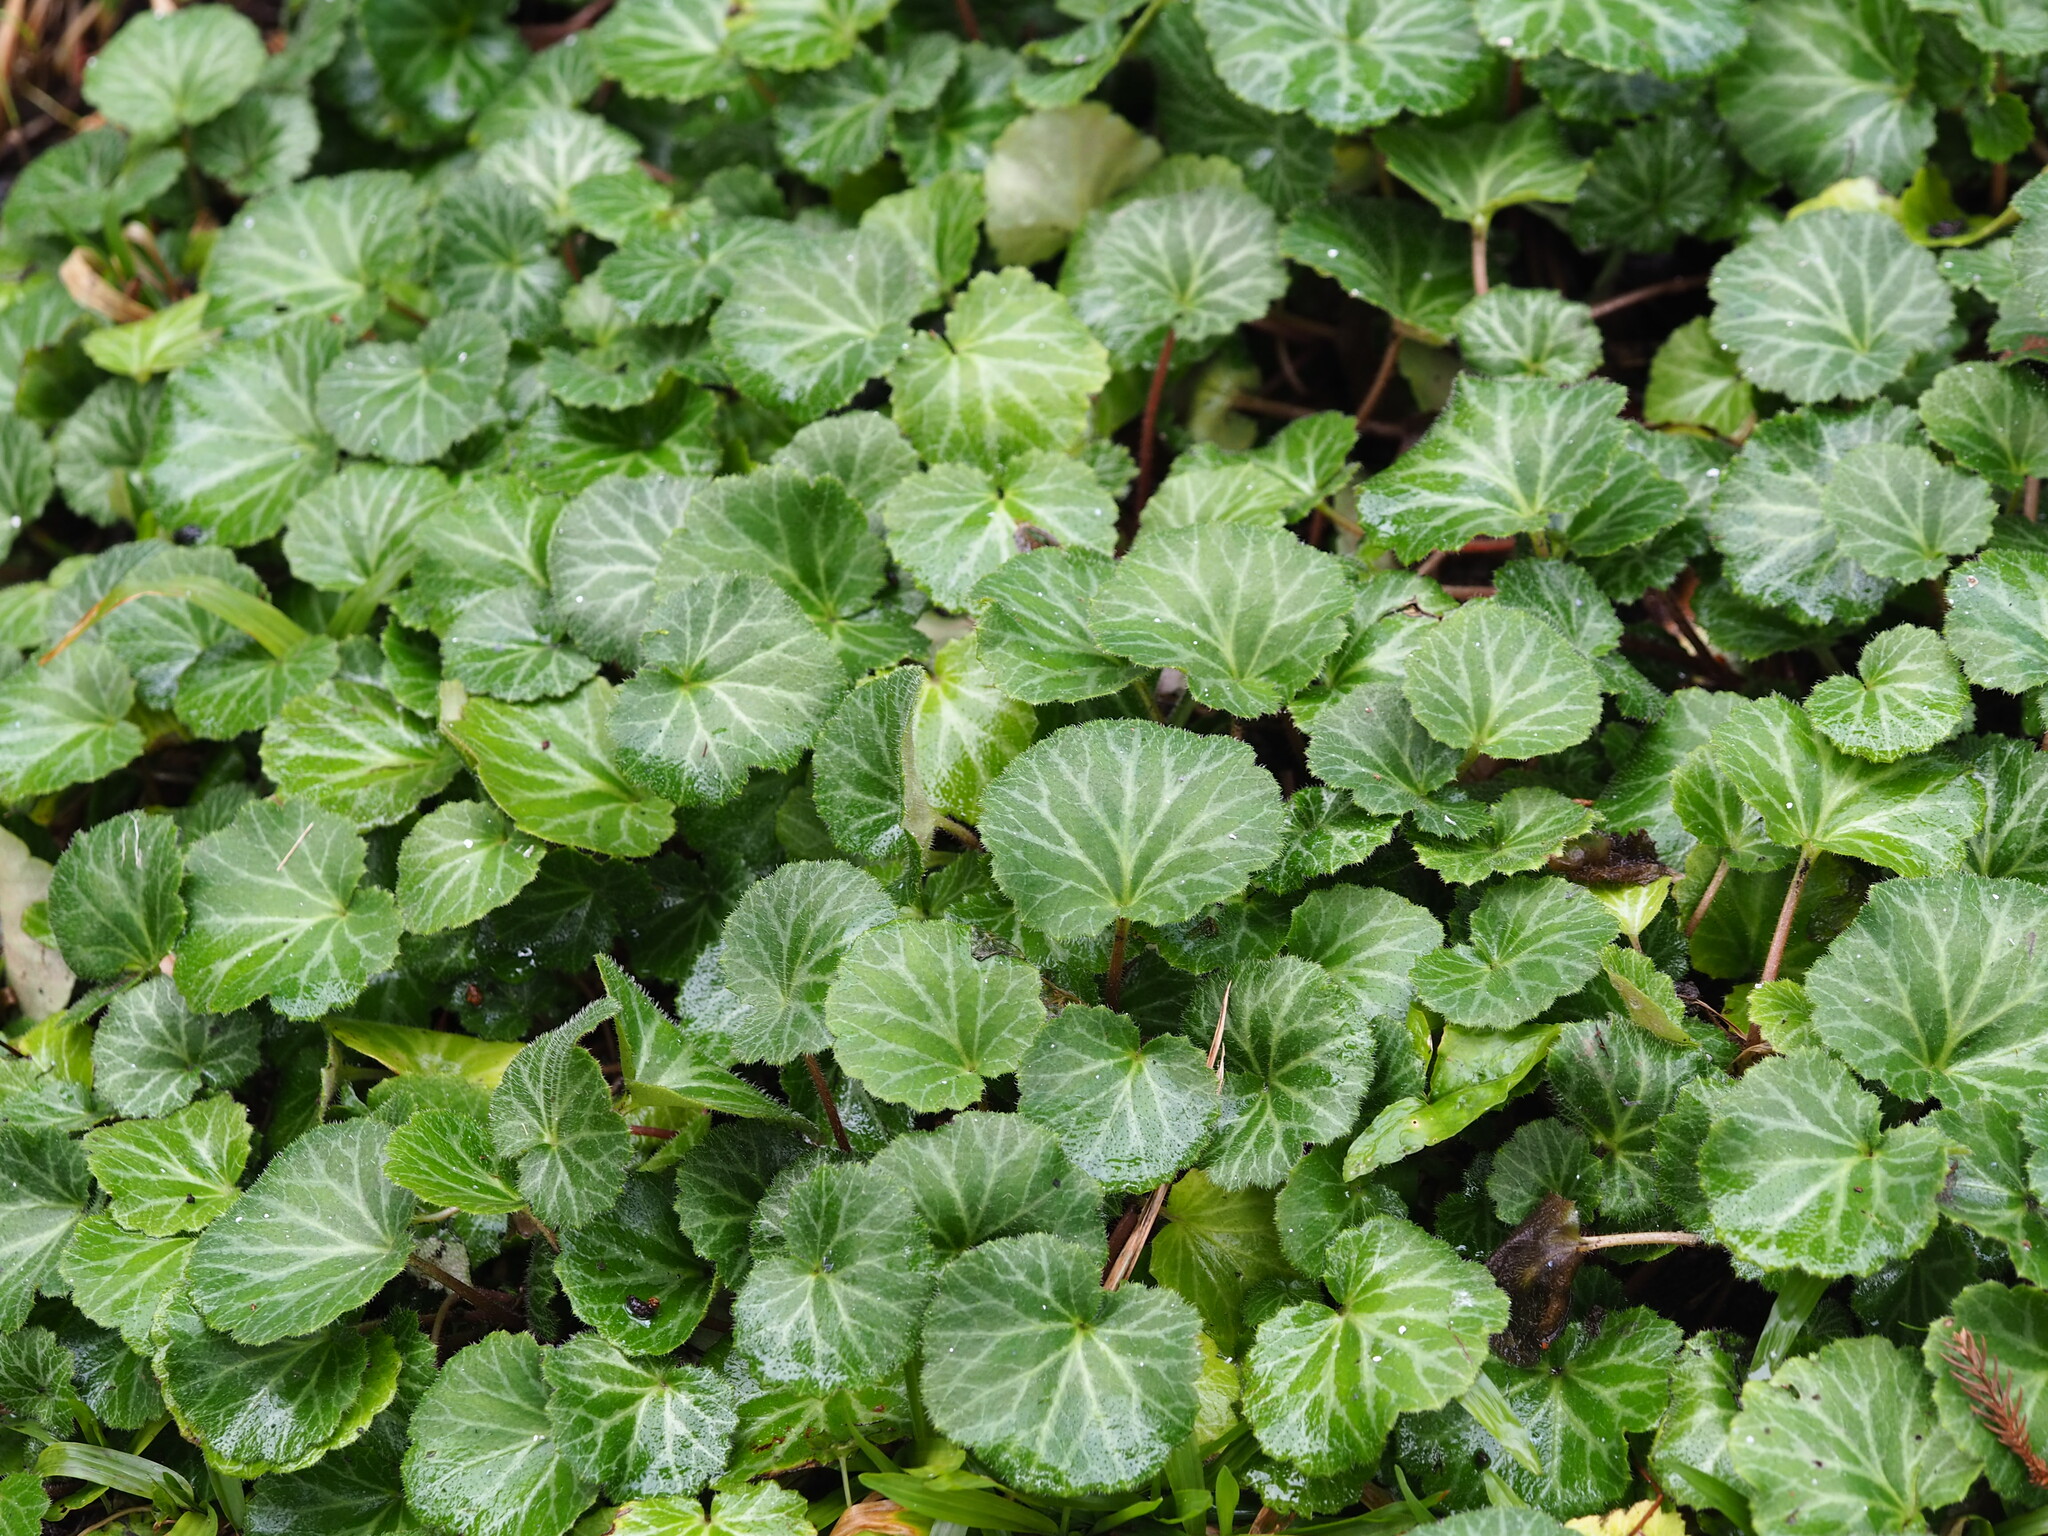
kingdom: Plantae
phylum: Tracheophyta
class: Magnoliopsida
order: Saxifragales
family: Saxifragaceae
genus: Saxifraga
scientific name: Saxifraga stolonifera
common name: Creeping saxifrage
